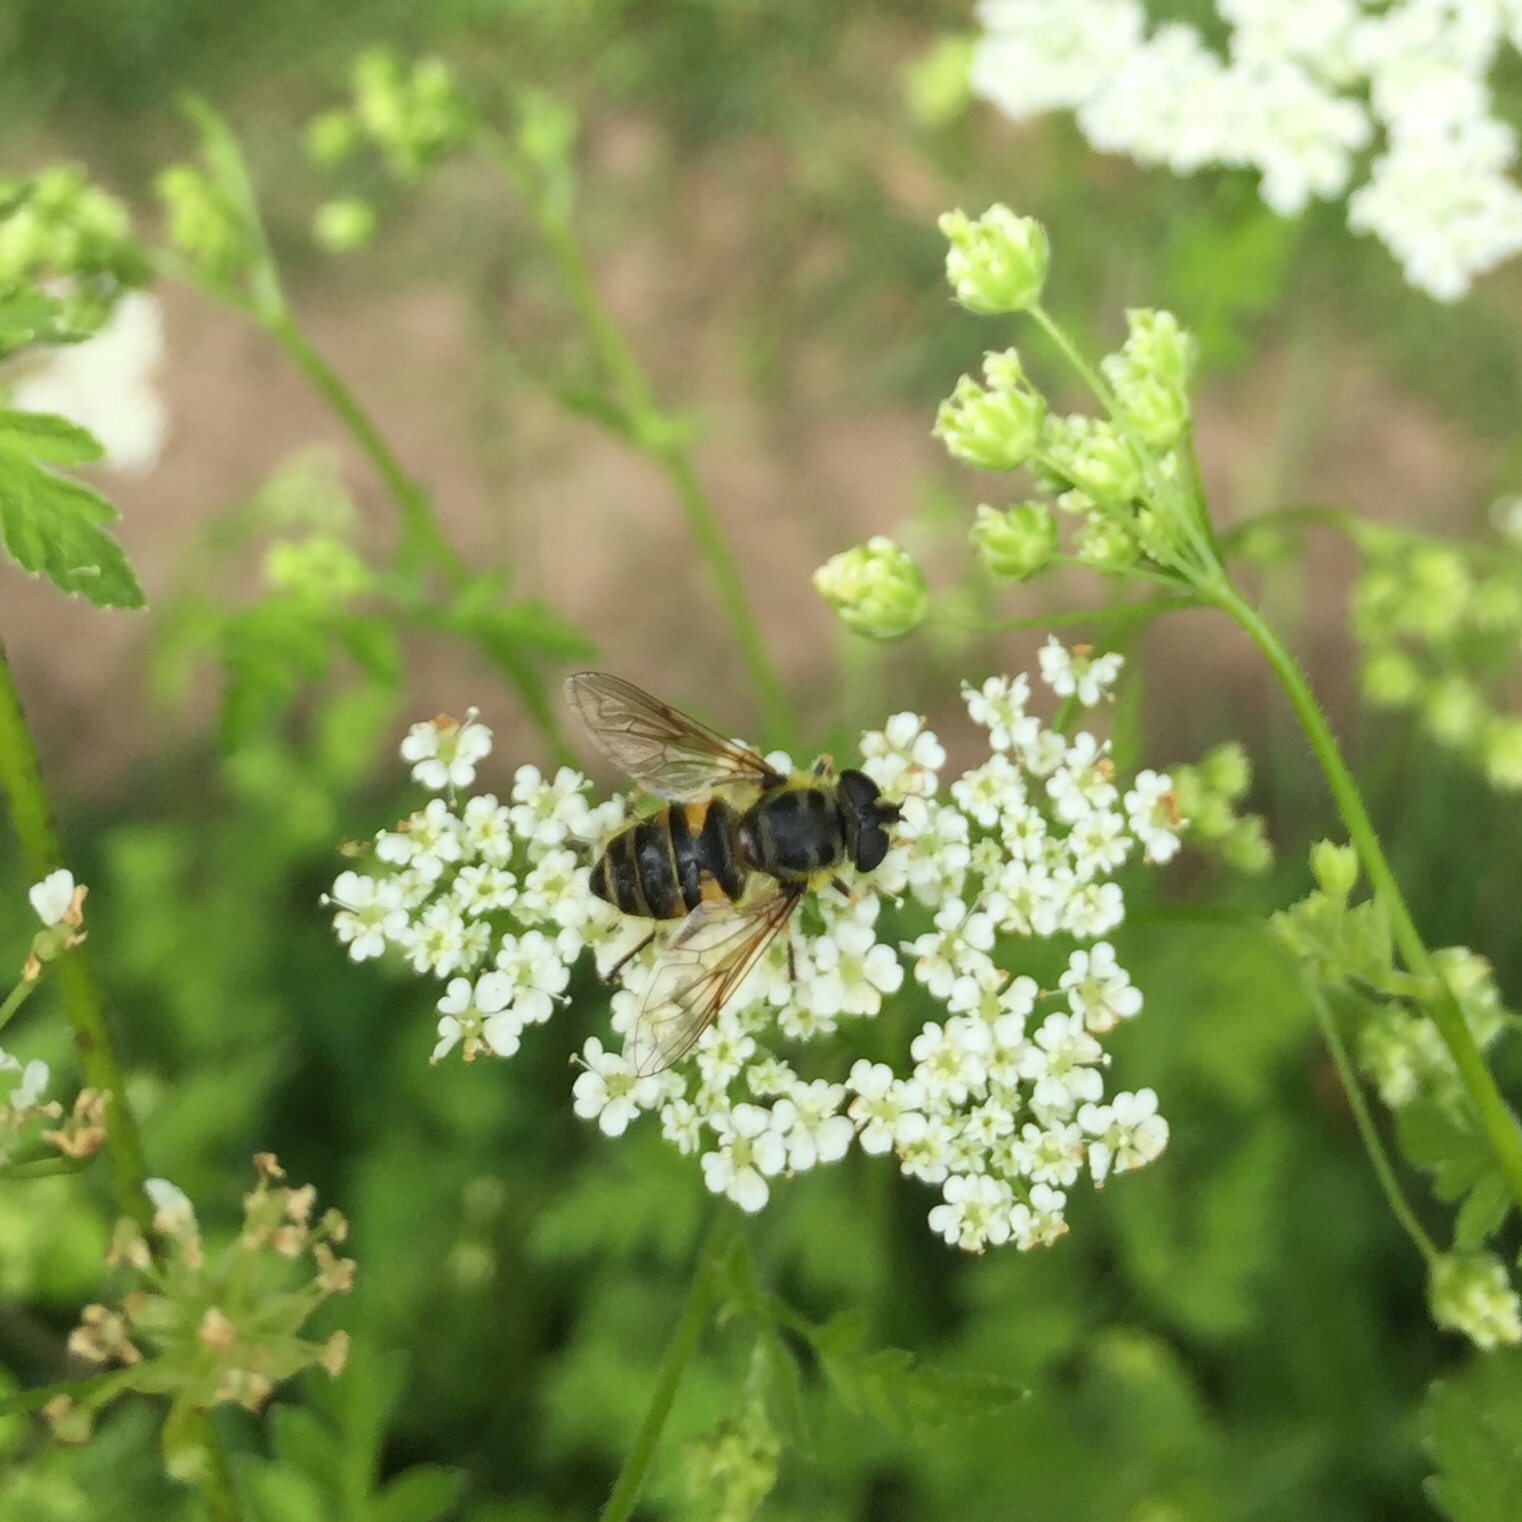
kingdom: Animalia
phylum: Arthropoda
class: Insecta
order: Diptera
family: Syrphidae
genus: Myathropa
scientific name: Myathropa florea
